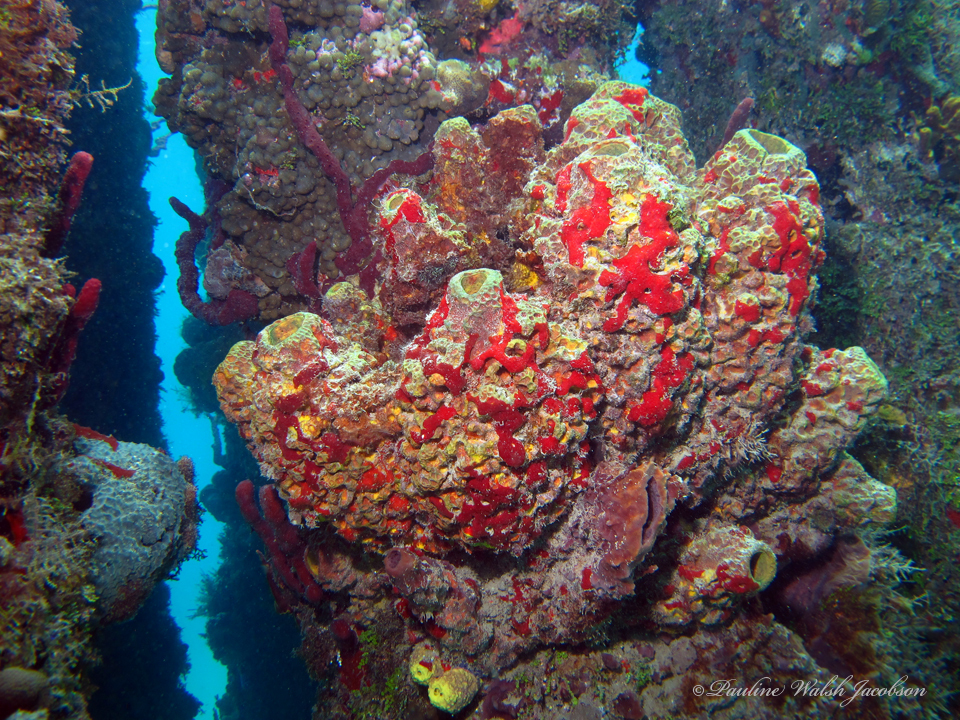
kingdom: Animalia
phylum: Porifera
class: Demospongiae
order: Verongiida
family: Aplysinidae
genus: Verongula
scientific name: Verongula reiswigi
